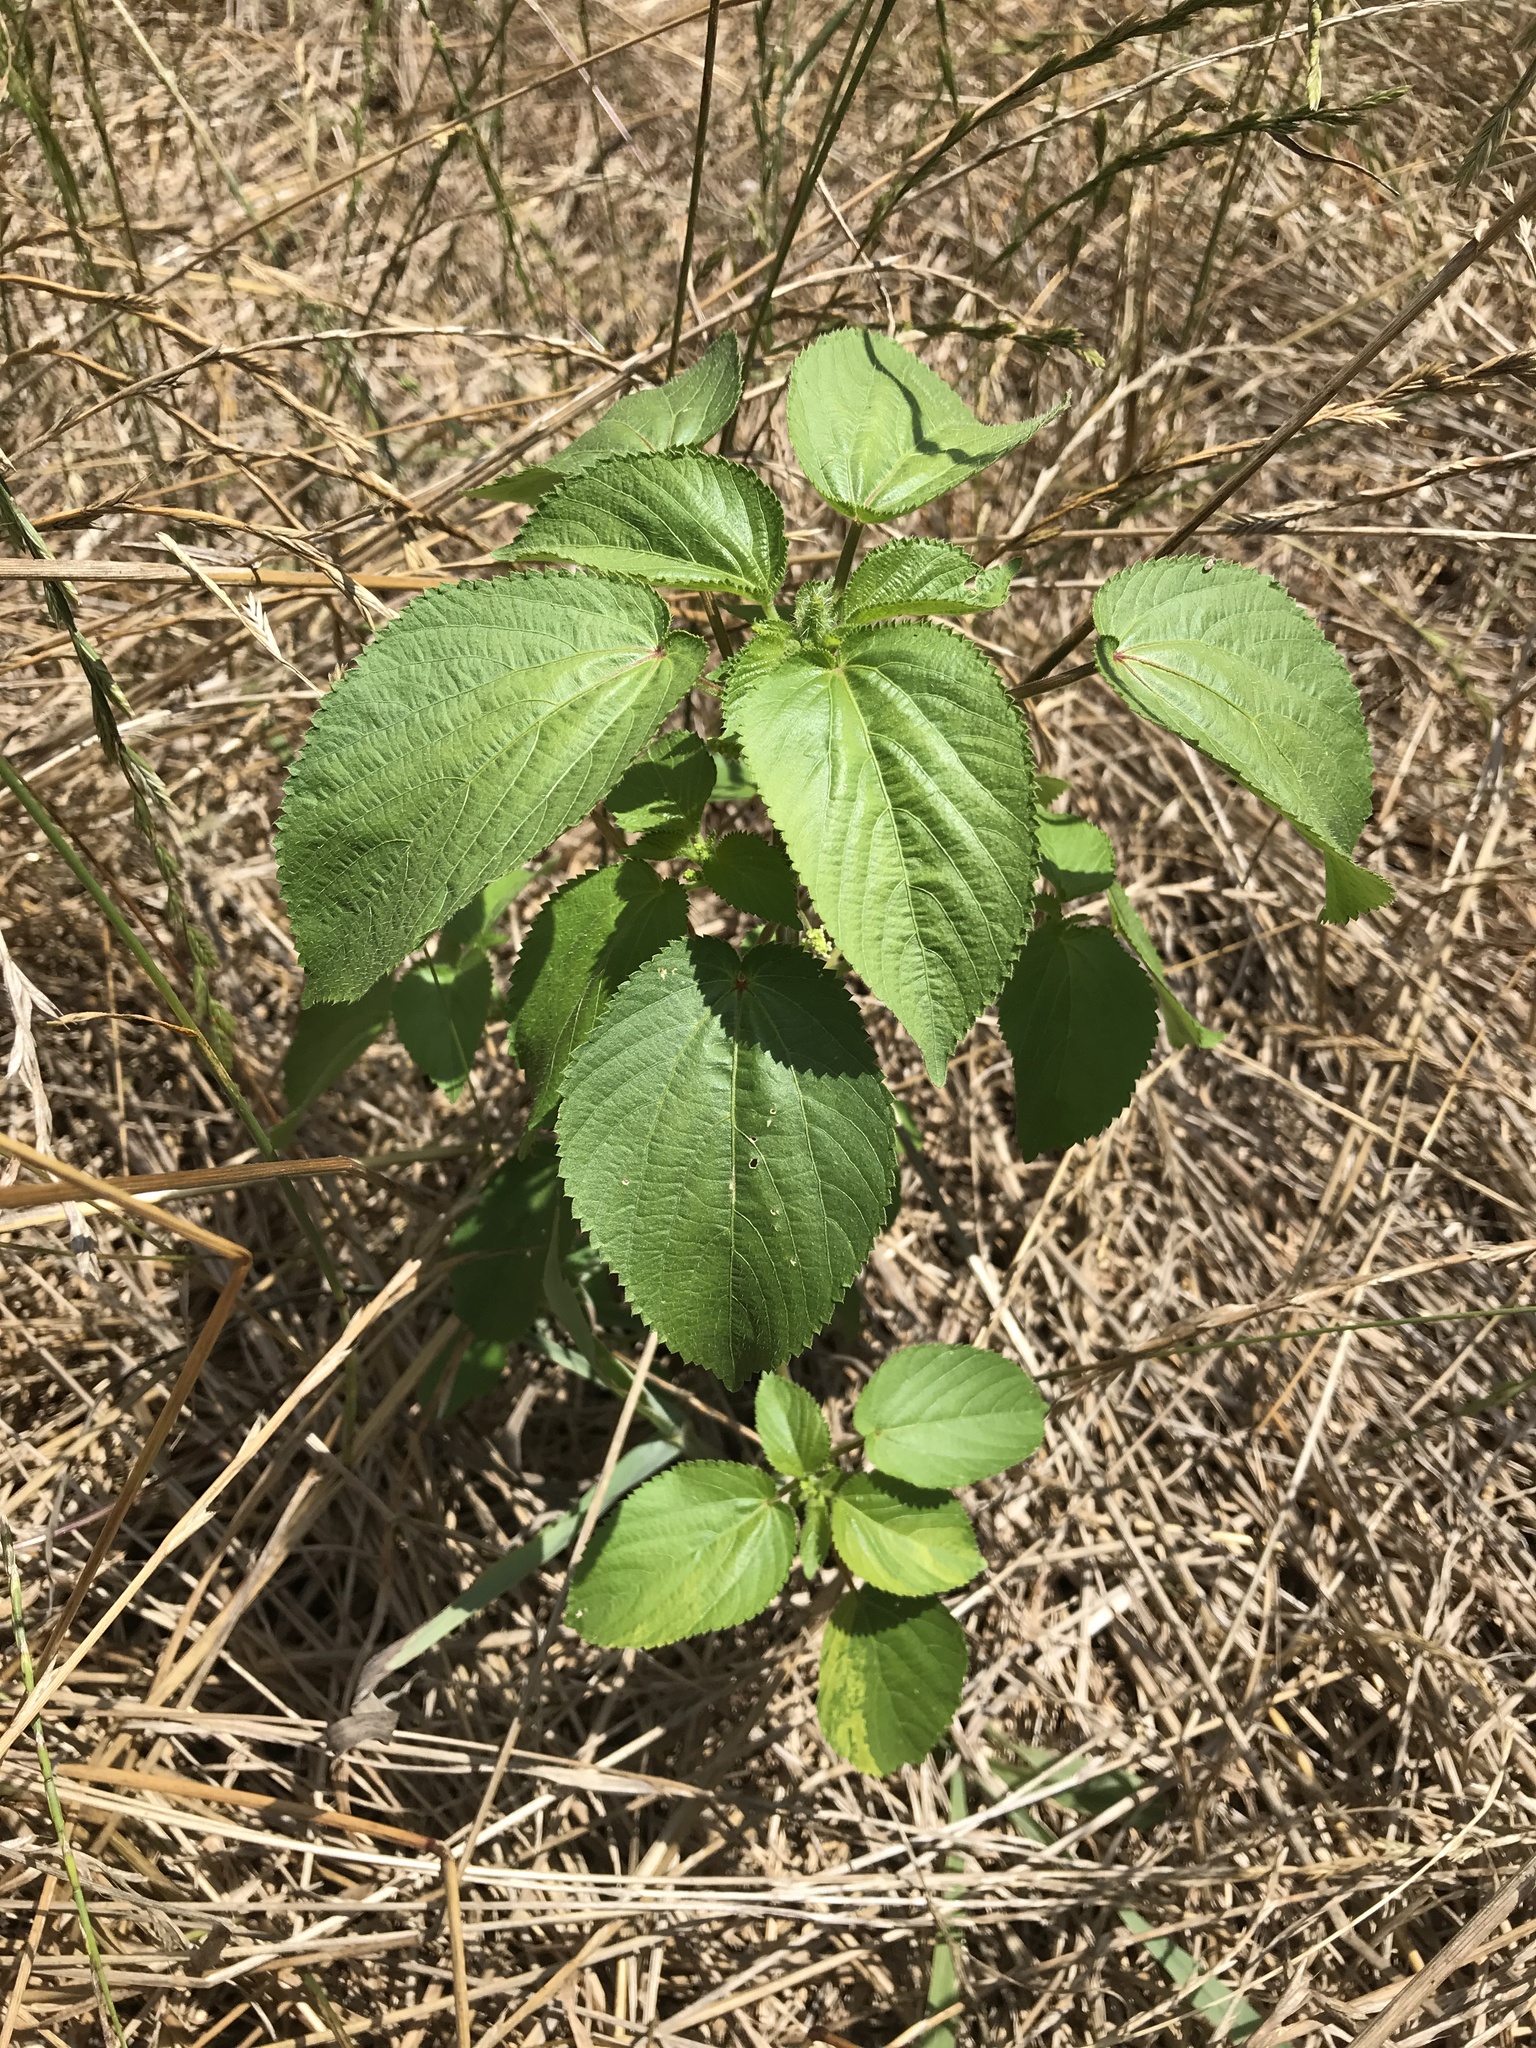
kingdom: Plantae
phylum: Tracheophyta
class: Magnoliopsida
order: Malpighiales
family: Euphorbiaceae
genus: Acalypha
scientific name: Acalypha ostryifolia
